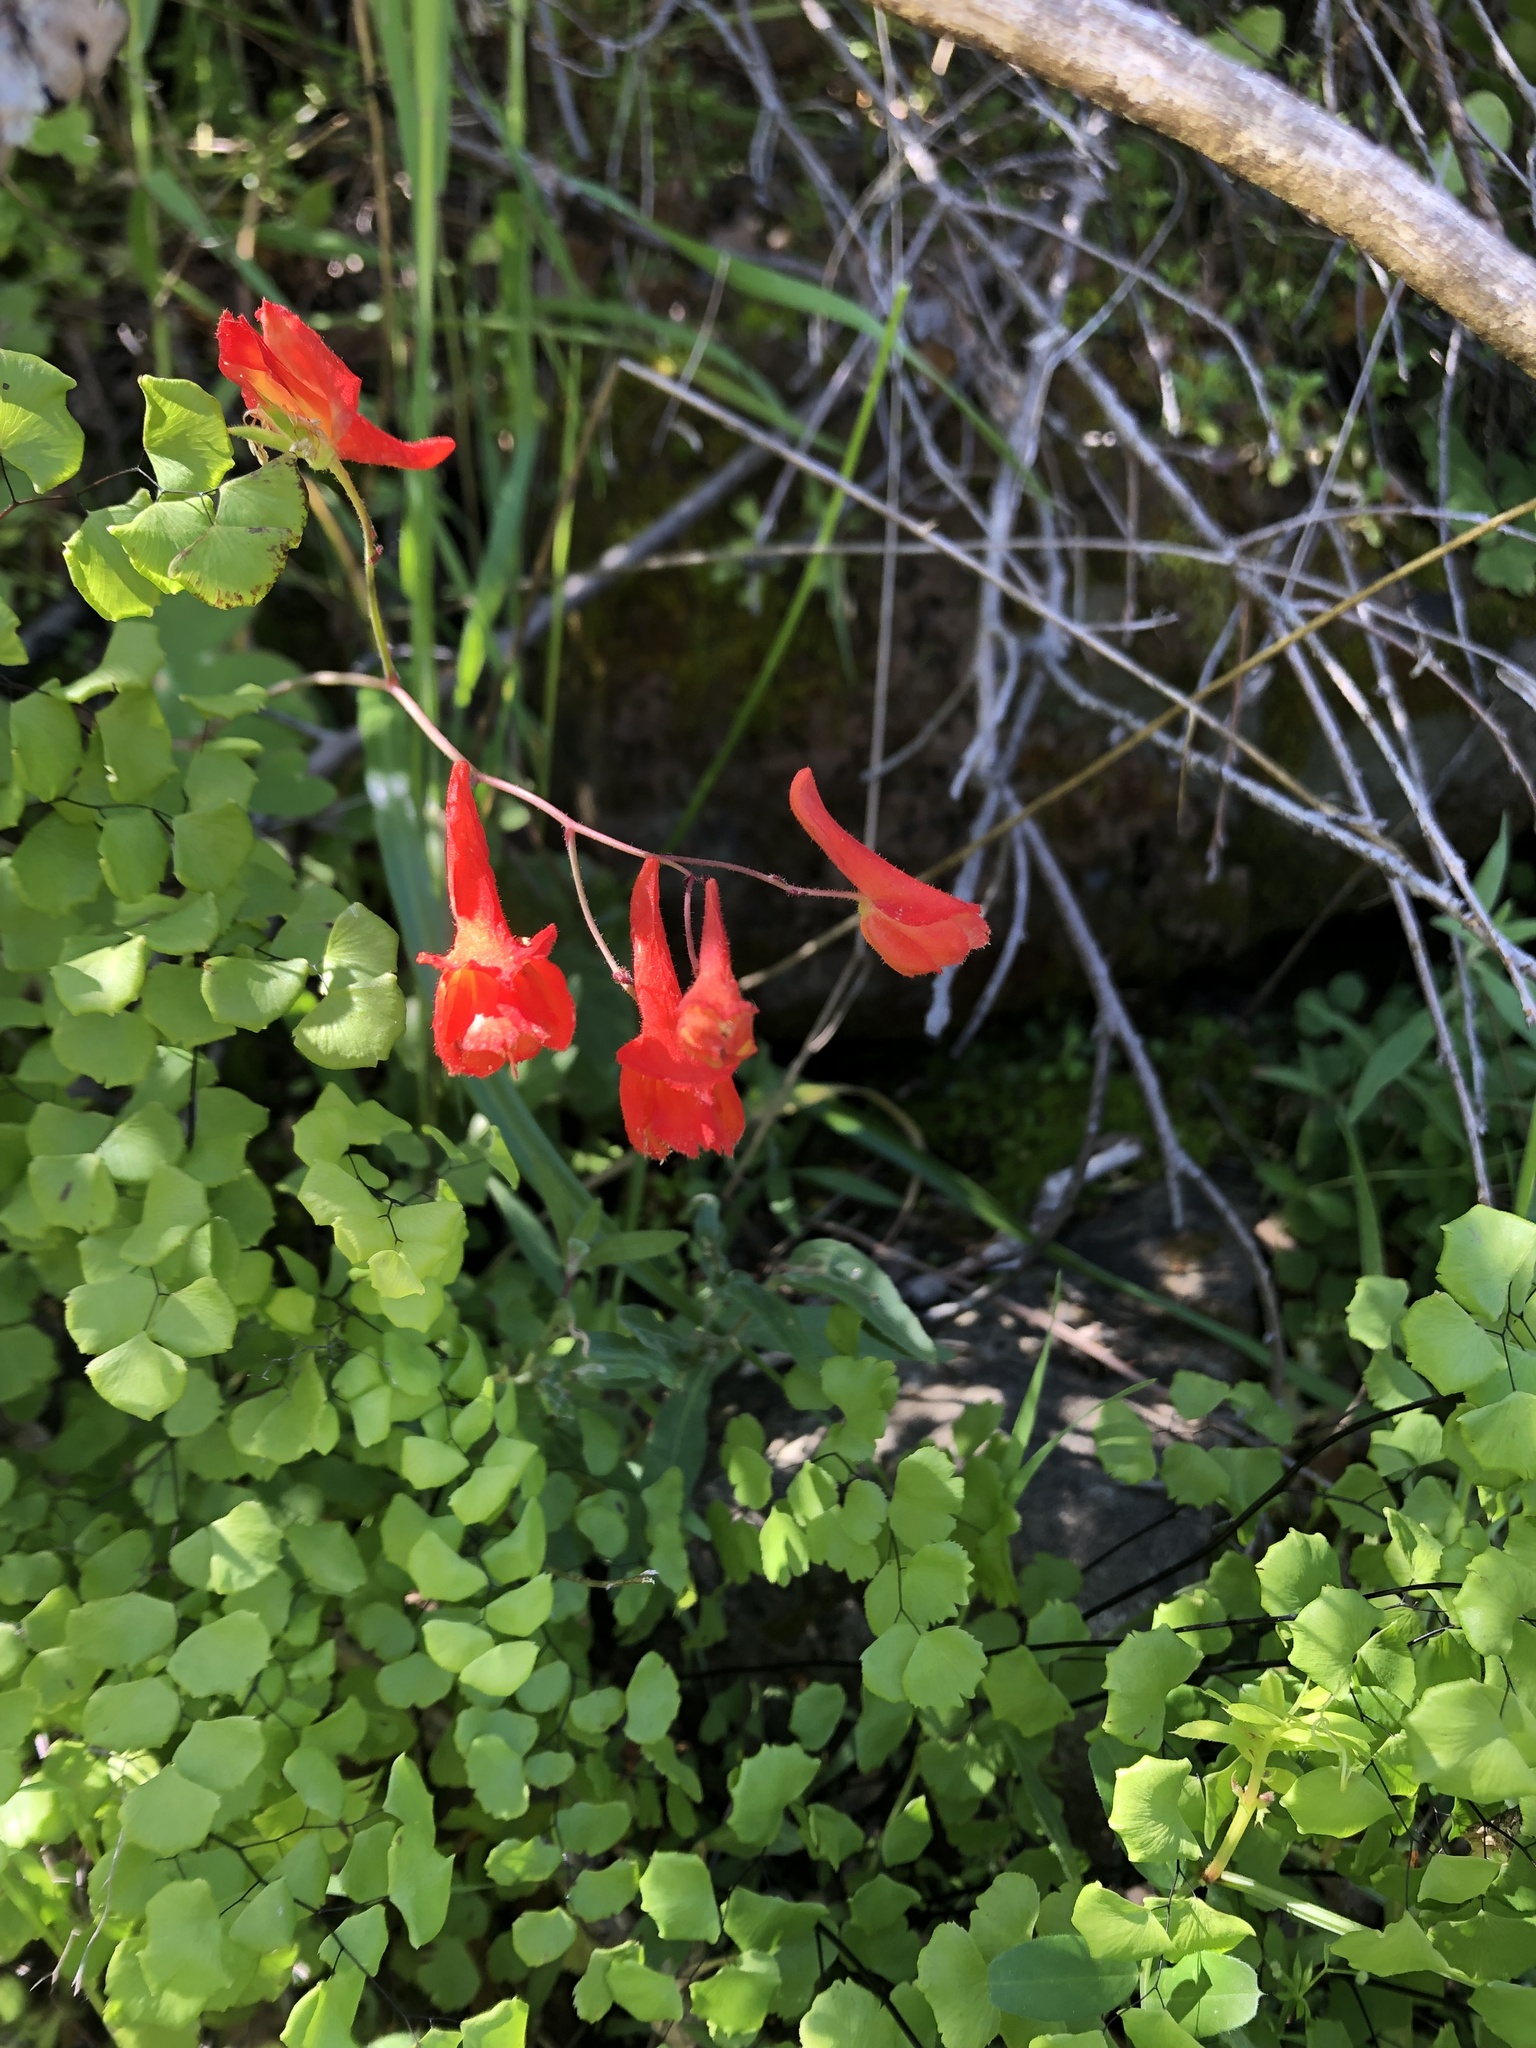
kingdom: Plantae
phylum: Tracheophyta
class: Magnoliopsida
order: Ranunculales
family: Ranunculaceae
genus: Delphinium
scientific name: Delphinium nudicaule
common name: Red larkspur
